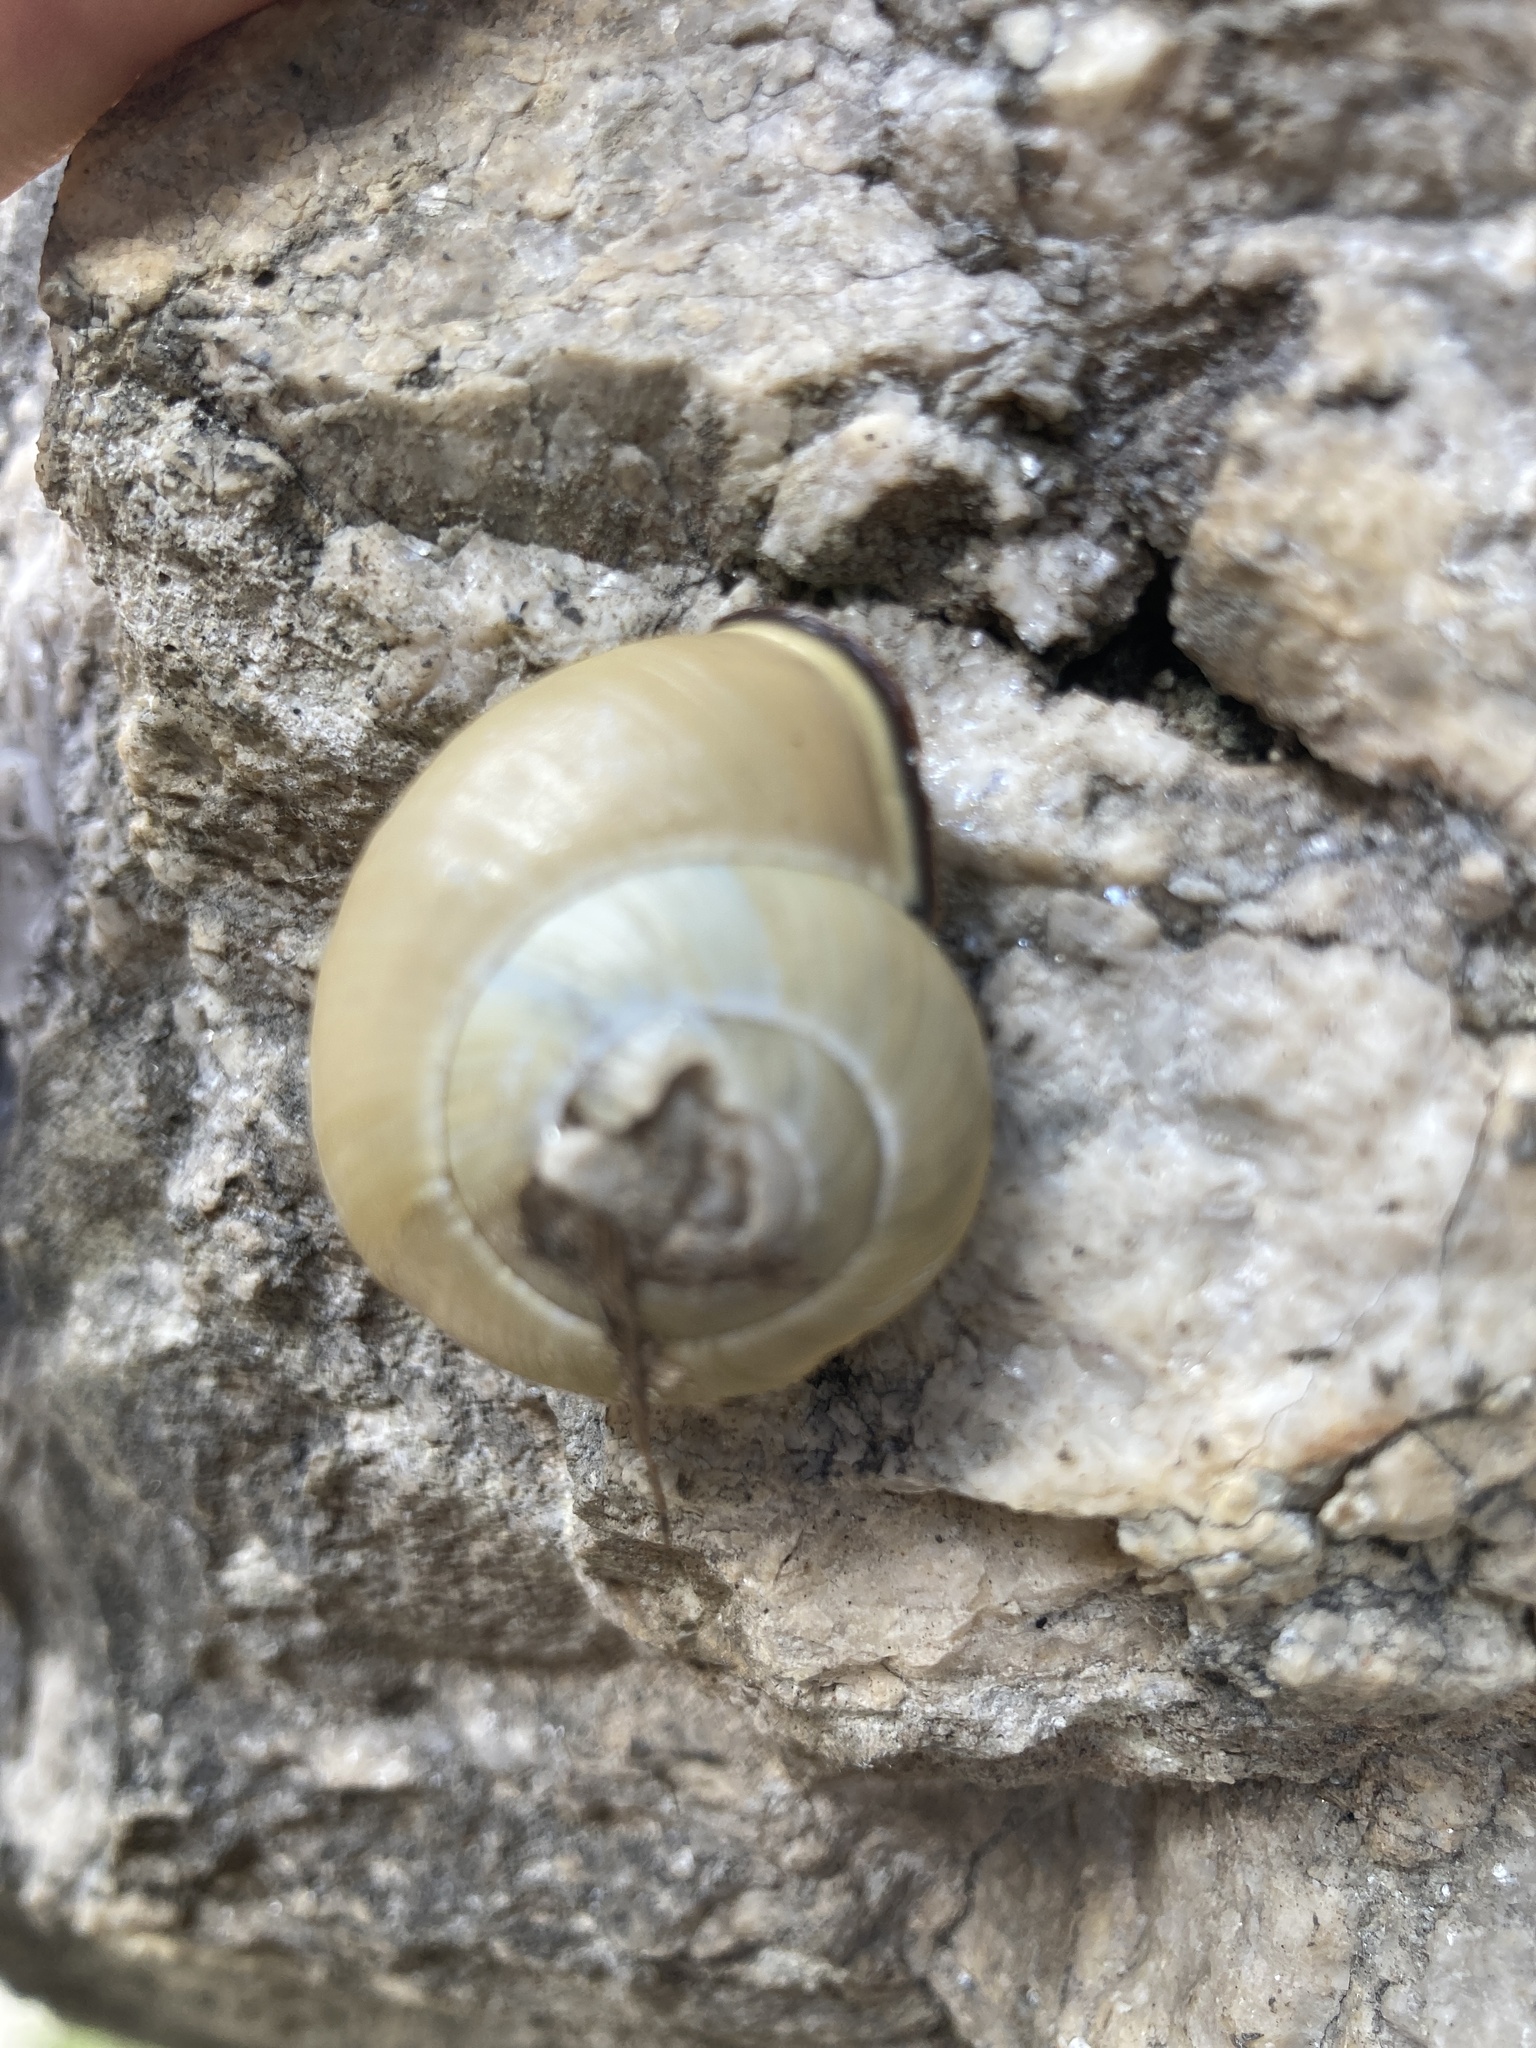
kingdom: Animalia
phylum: Mollusca
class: Gastropoda
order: Stylommatophora
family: Helicidae
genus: Cepaea
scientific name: Cepaea nemoralis
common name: Grovesnail
